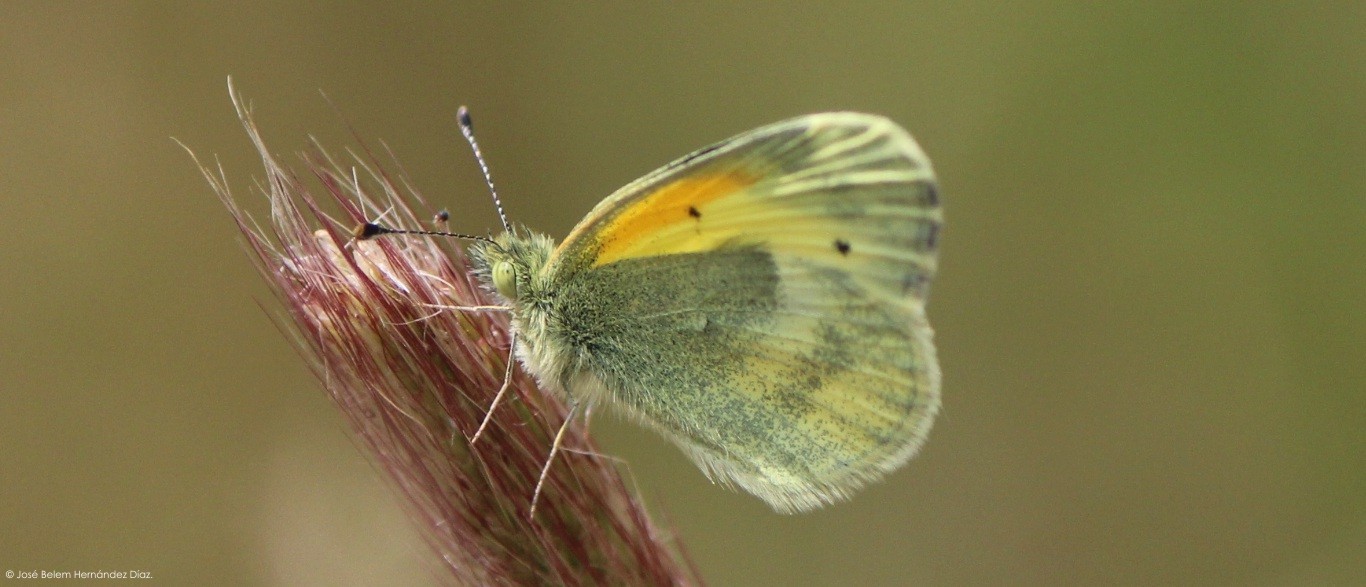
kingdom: Animalia
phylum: Arthropoda
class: Insecta
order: Lepidoptera
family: Pieridae
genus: Nathalis
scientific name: Nathalis iole
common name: Dainty sulphur
